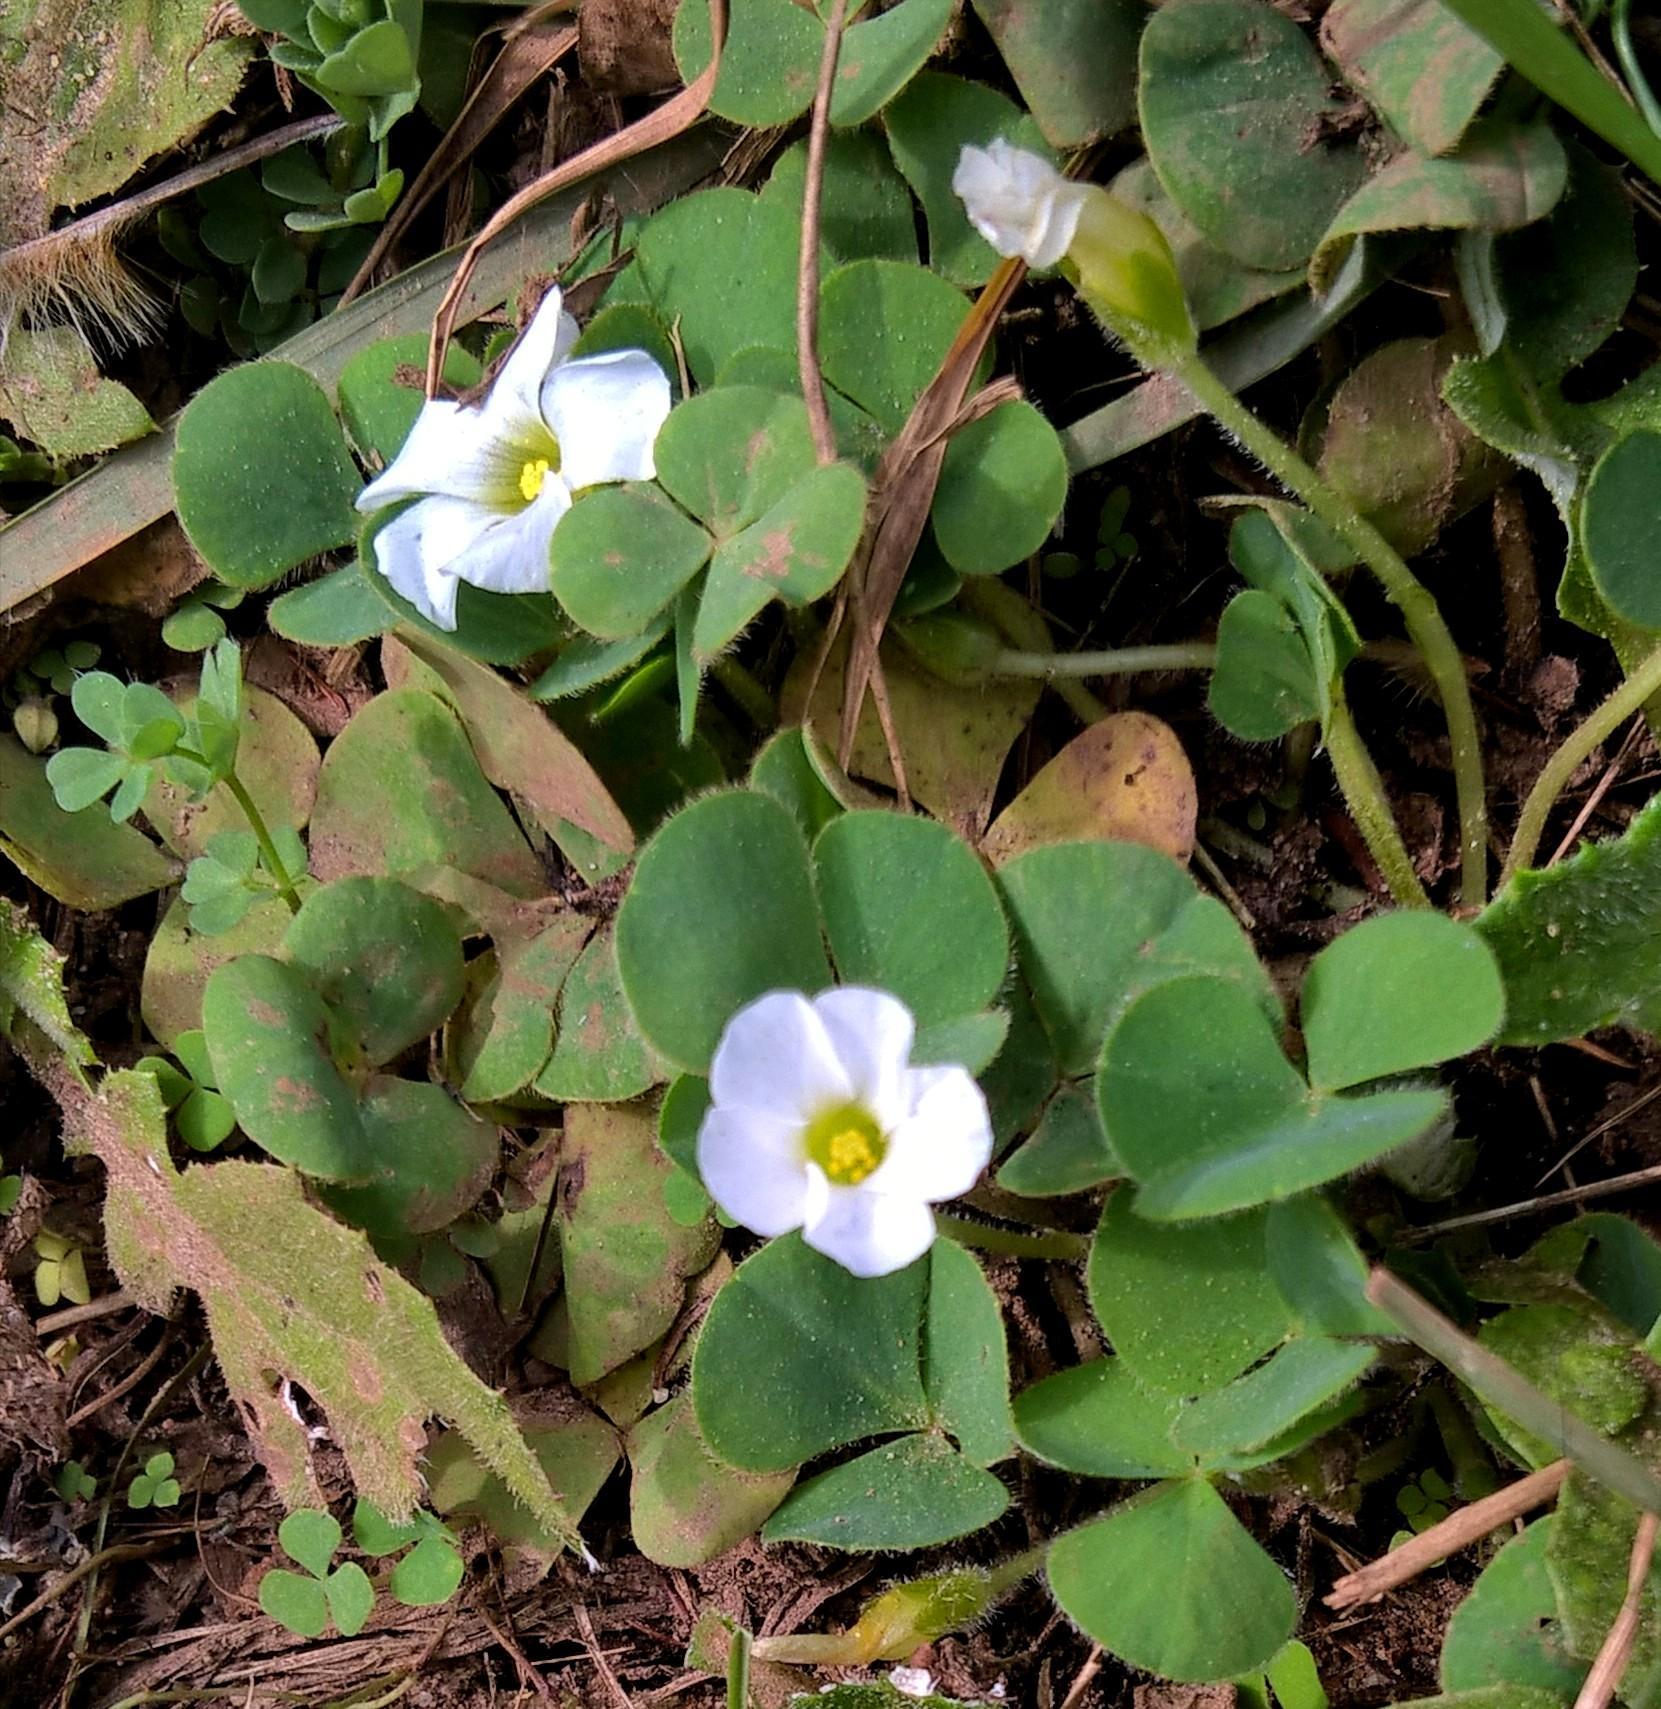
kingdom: Plantae
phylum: Tracheophyta
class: Magnoliopsida
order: Oxalidales
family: Oxalidaceae
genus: Oxalis
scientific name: Oxalis purpurea
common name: Purple woodsorrel
